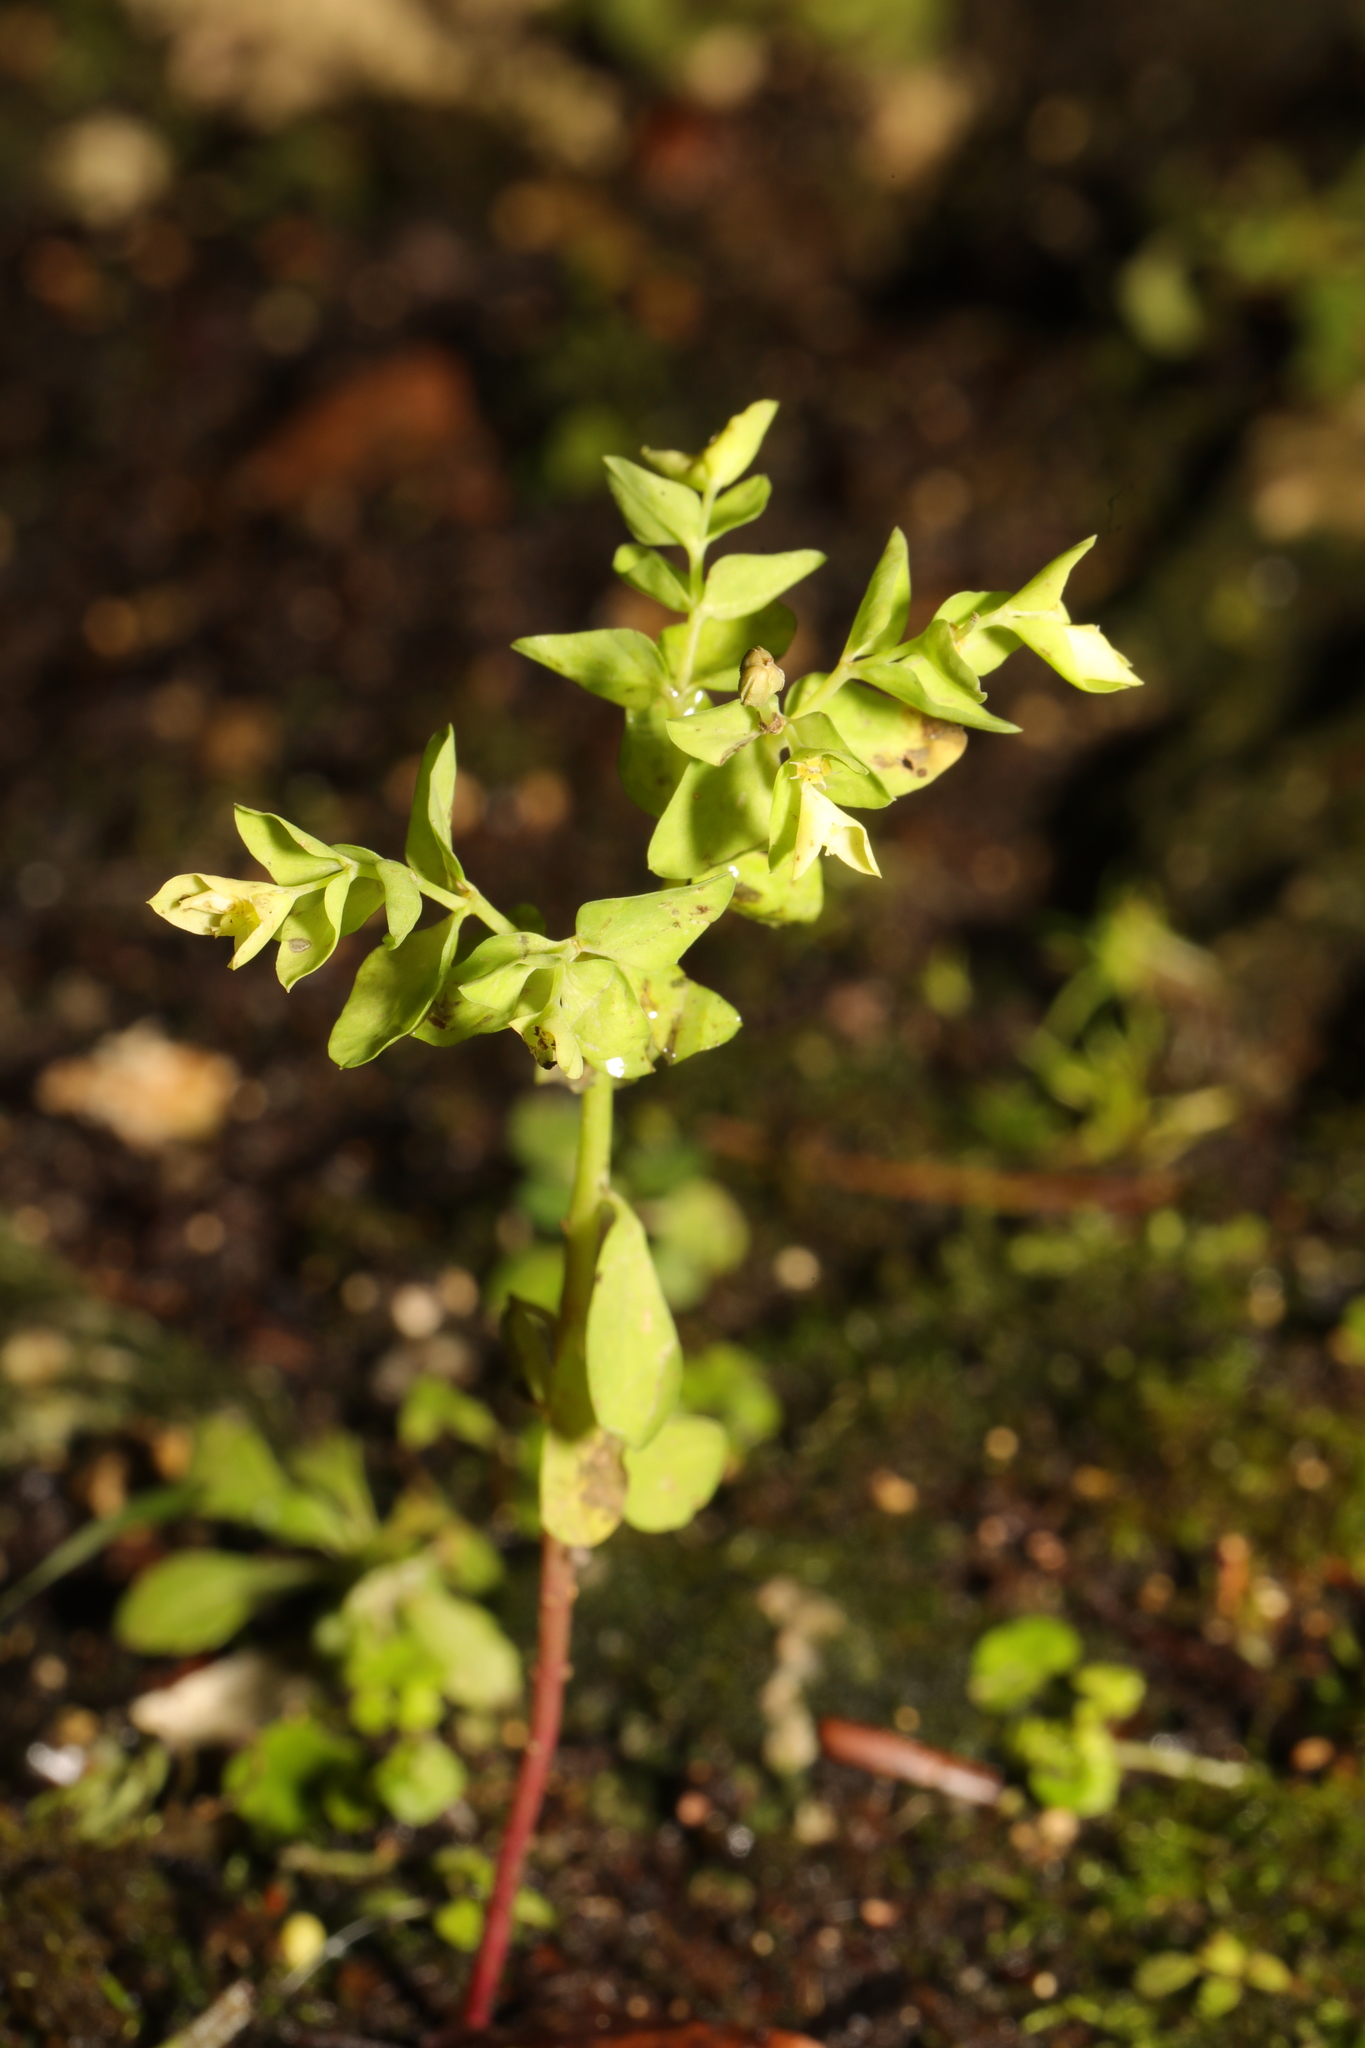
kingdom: Plantae
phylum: Tracheophyta
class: Magnoliopsida
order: Malpighiales
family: Euphorbiaceae
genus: Euphorbia
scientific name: Euphorbia peplus
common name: Petty spurge
